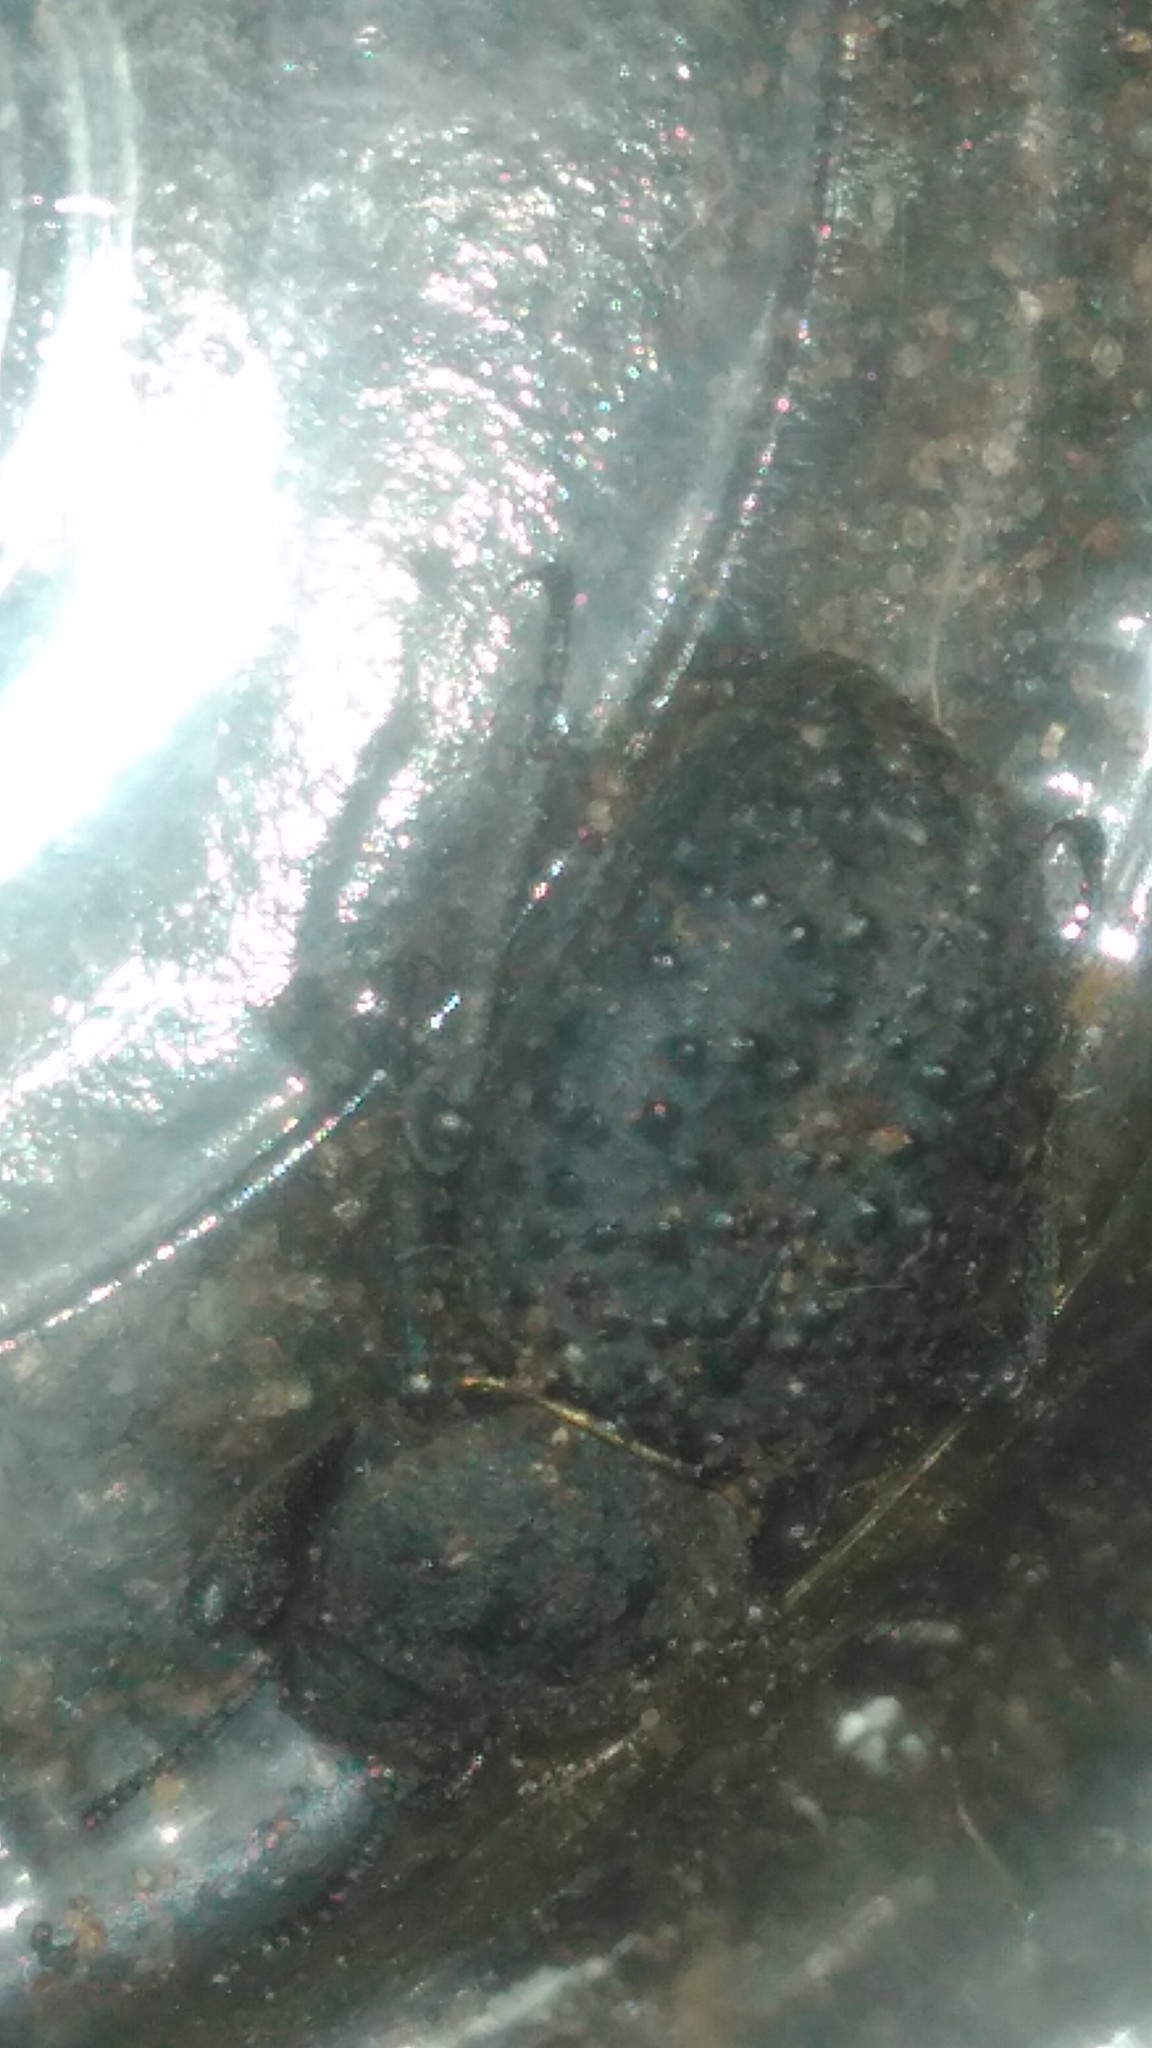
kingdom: Animalia
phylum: Arthropoda
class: Insecta
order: Coleoptera
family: Tenebrionidae
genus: Scotobius
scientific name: Scotobius pilularius
